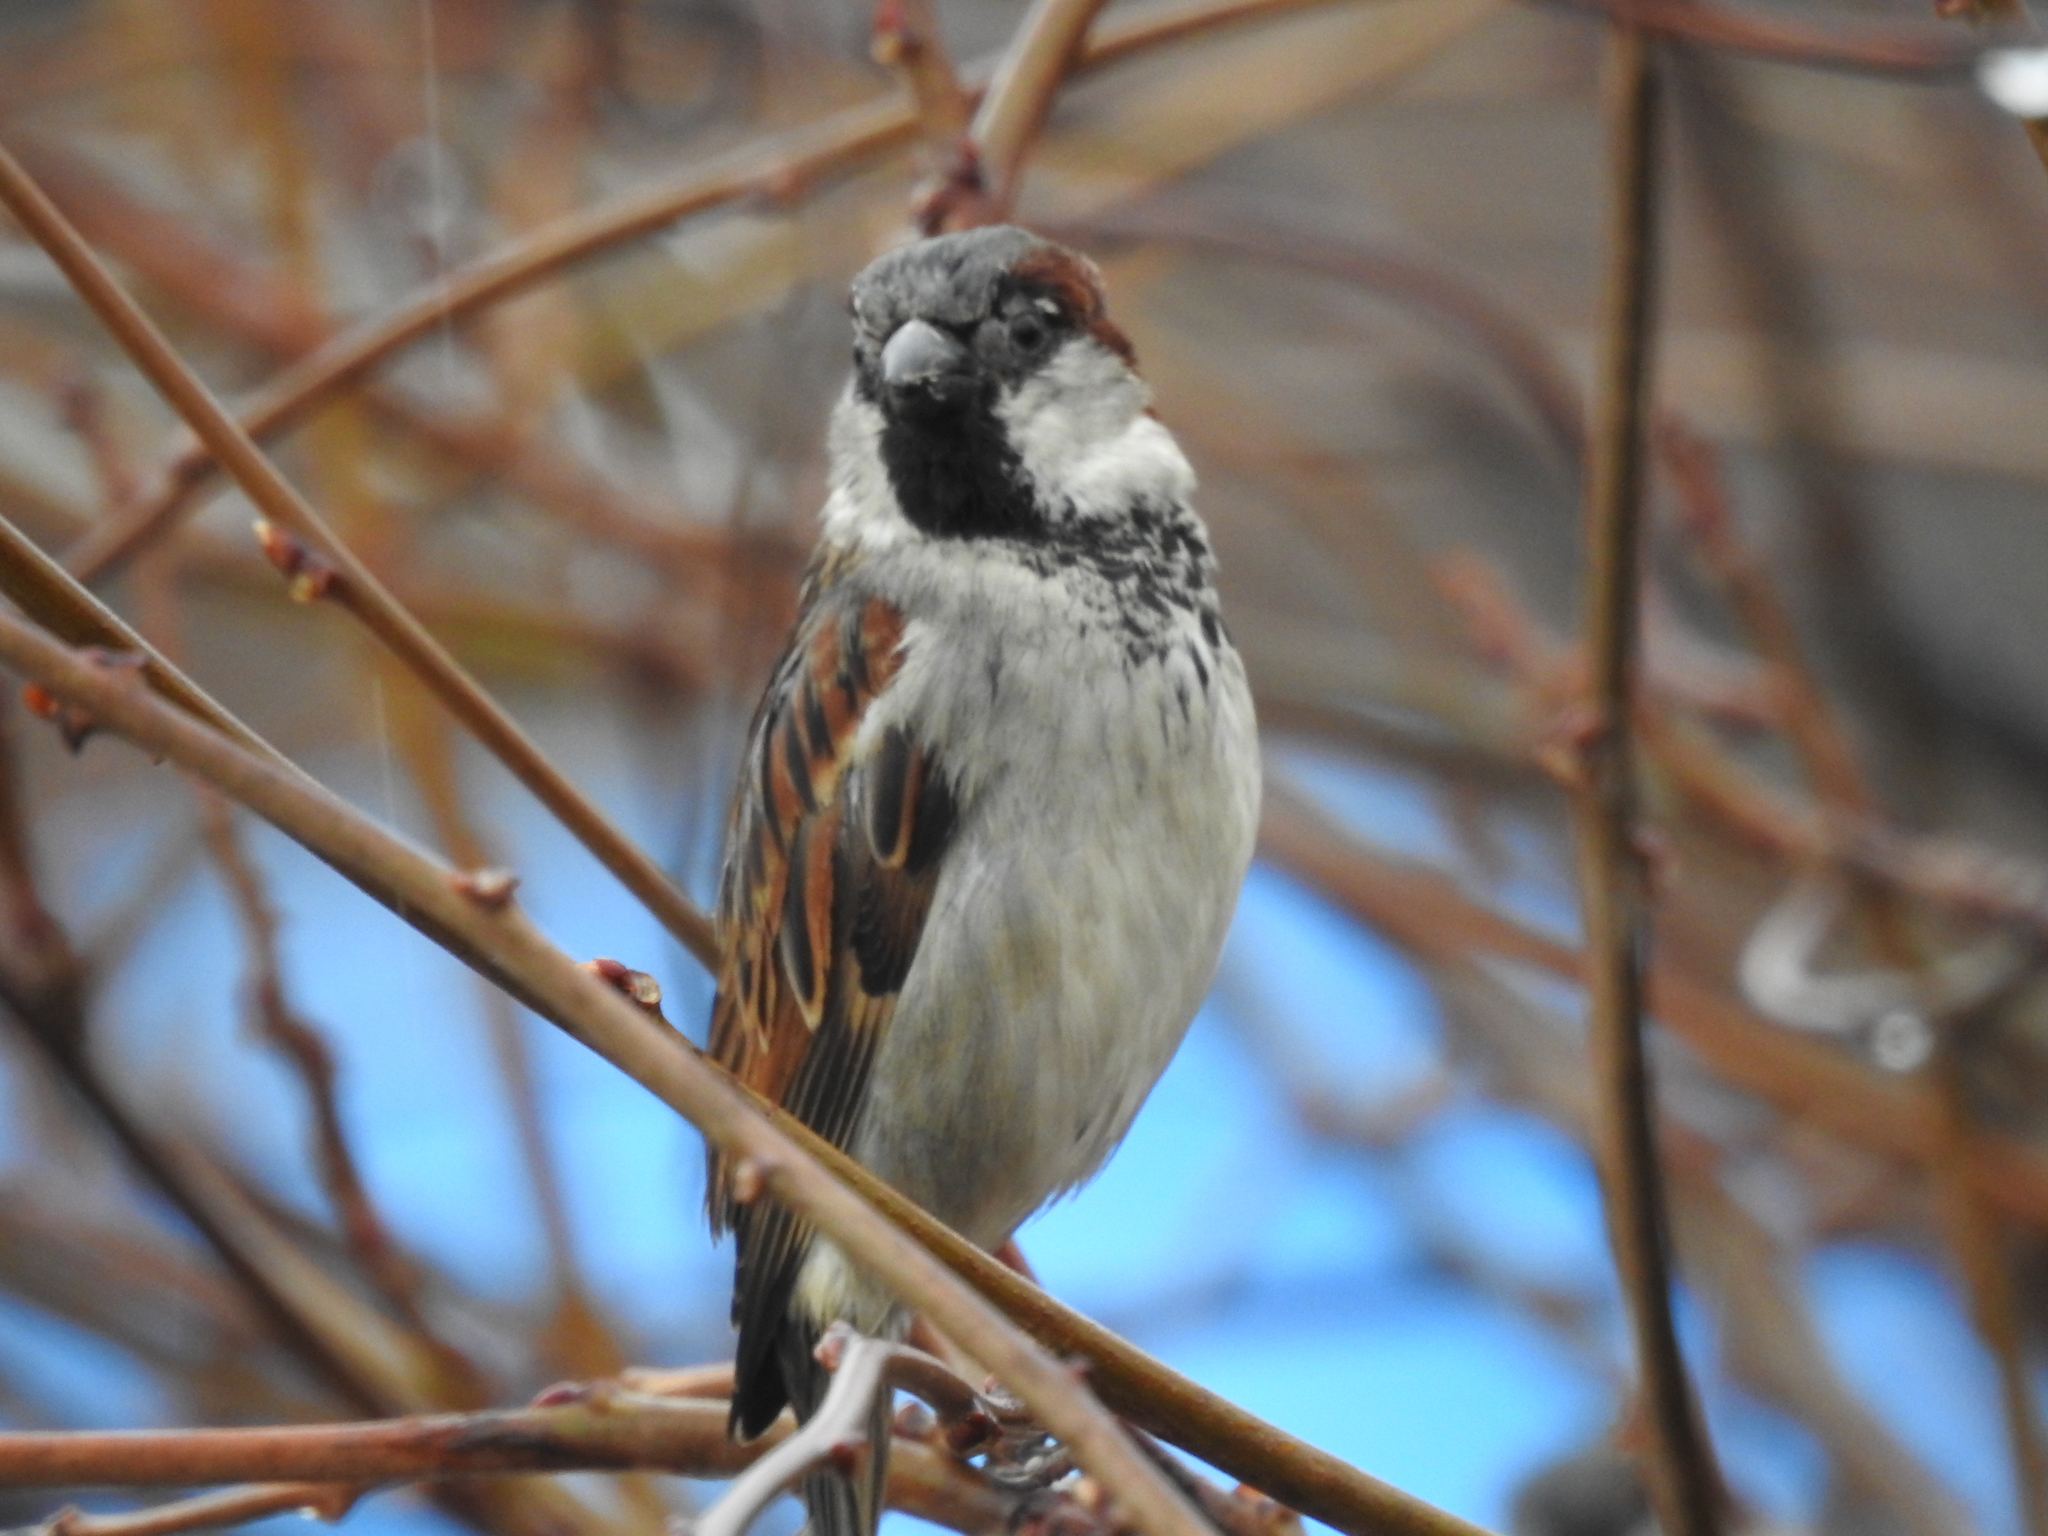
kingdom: Animalia
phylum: Chordata
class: Aves
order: Passeriformes
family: Passeridae
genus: Passer
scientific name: Passer domesticus
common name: House sparrow
